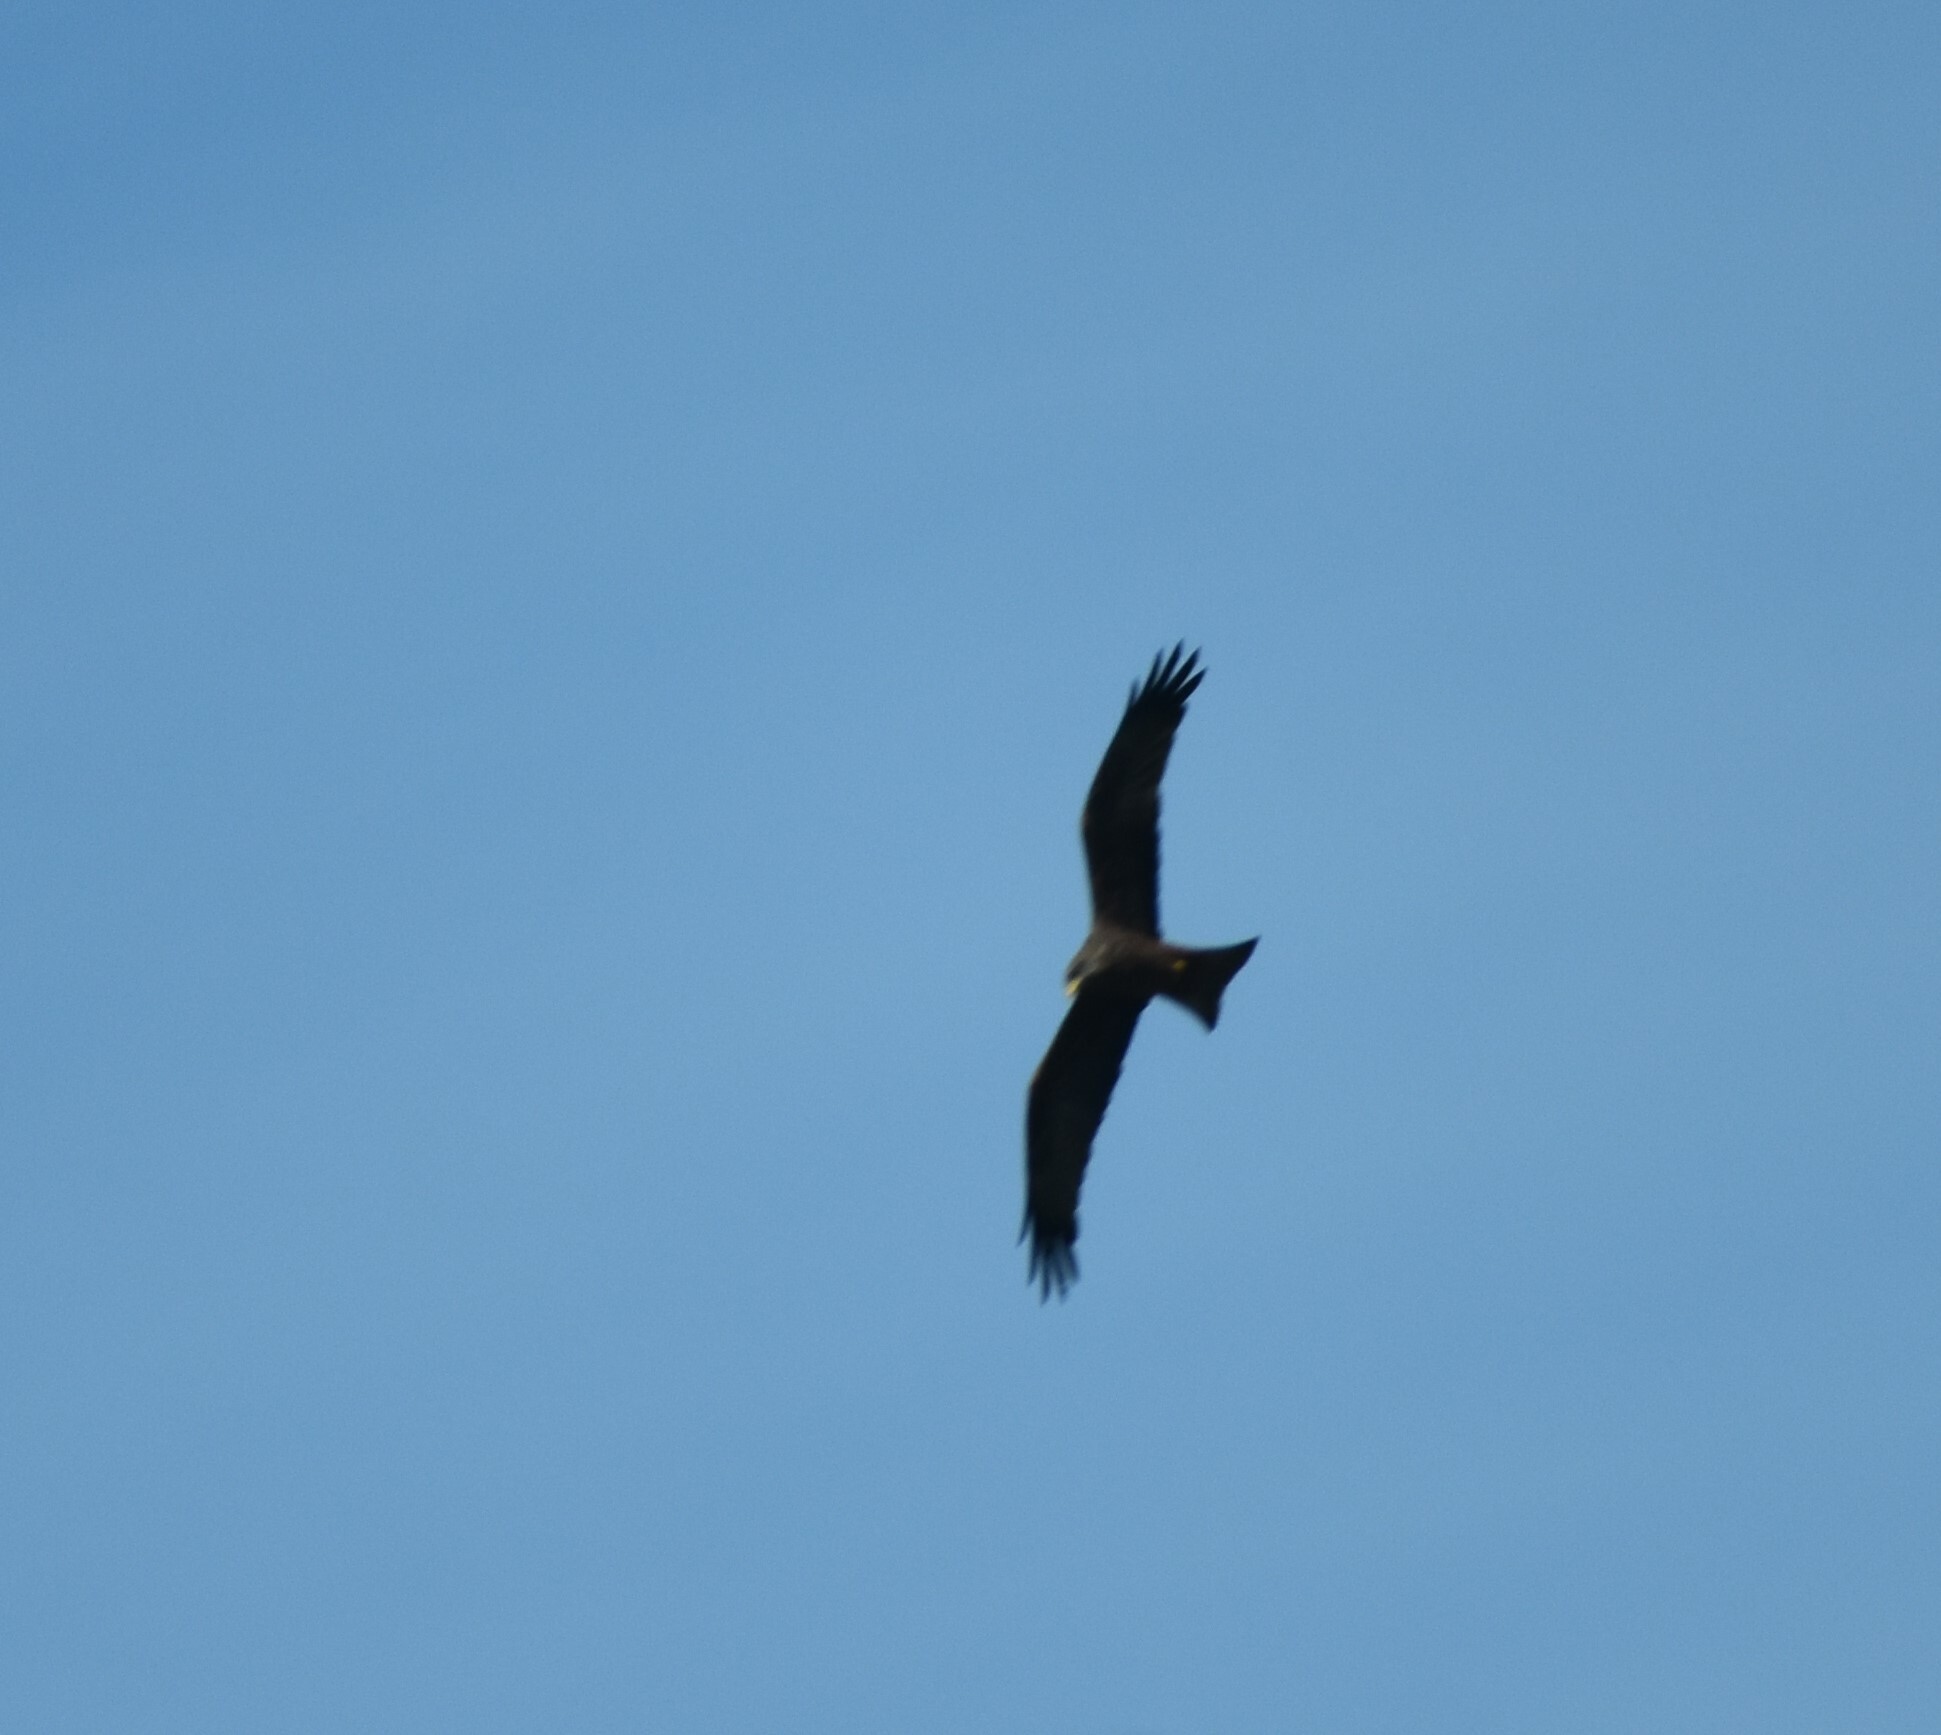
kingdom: Animalia
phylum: Chordata
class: Aves
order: Accipitriformes
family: Accipitridae
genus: Milvus
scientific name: Milvus migrans
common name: Black kite
